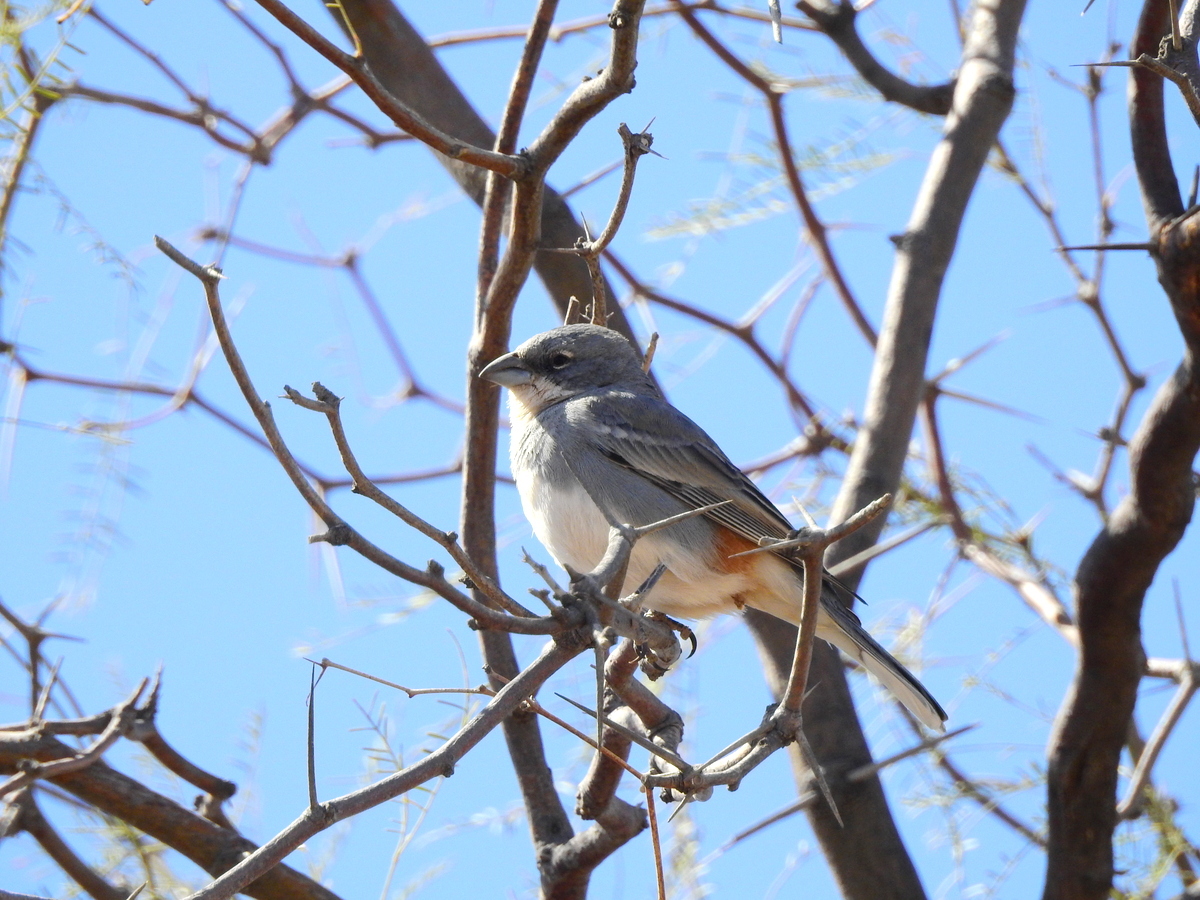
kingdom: Animalia
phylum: Chordata
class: Aves
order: Passeriformes
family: Thraupidae
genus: Diuca
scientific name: Diuca diuca
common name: Common diuca finch
